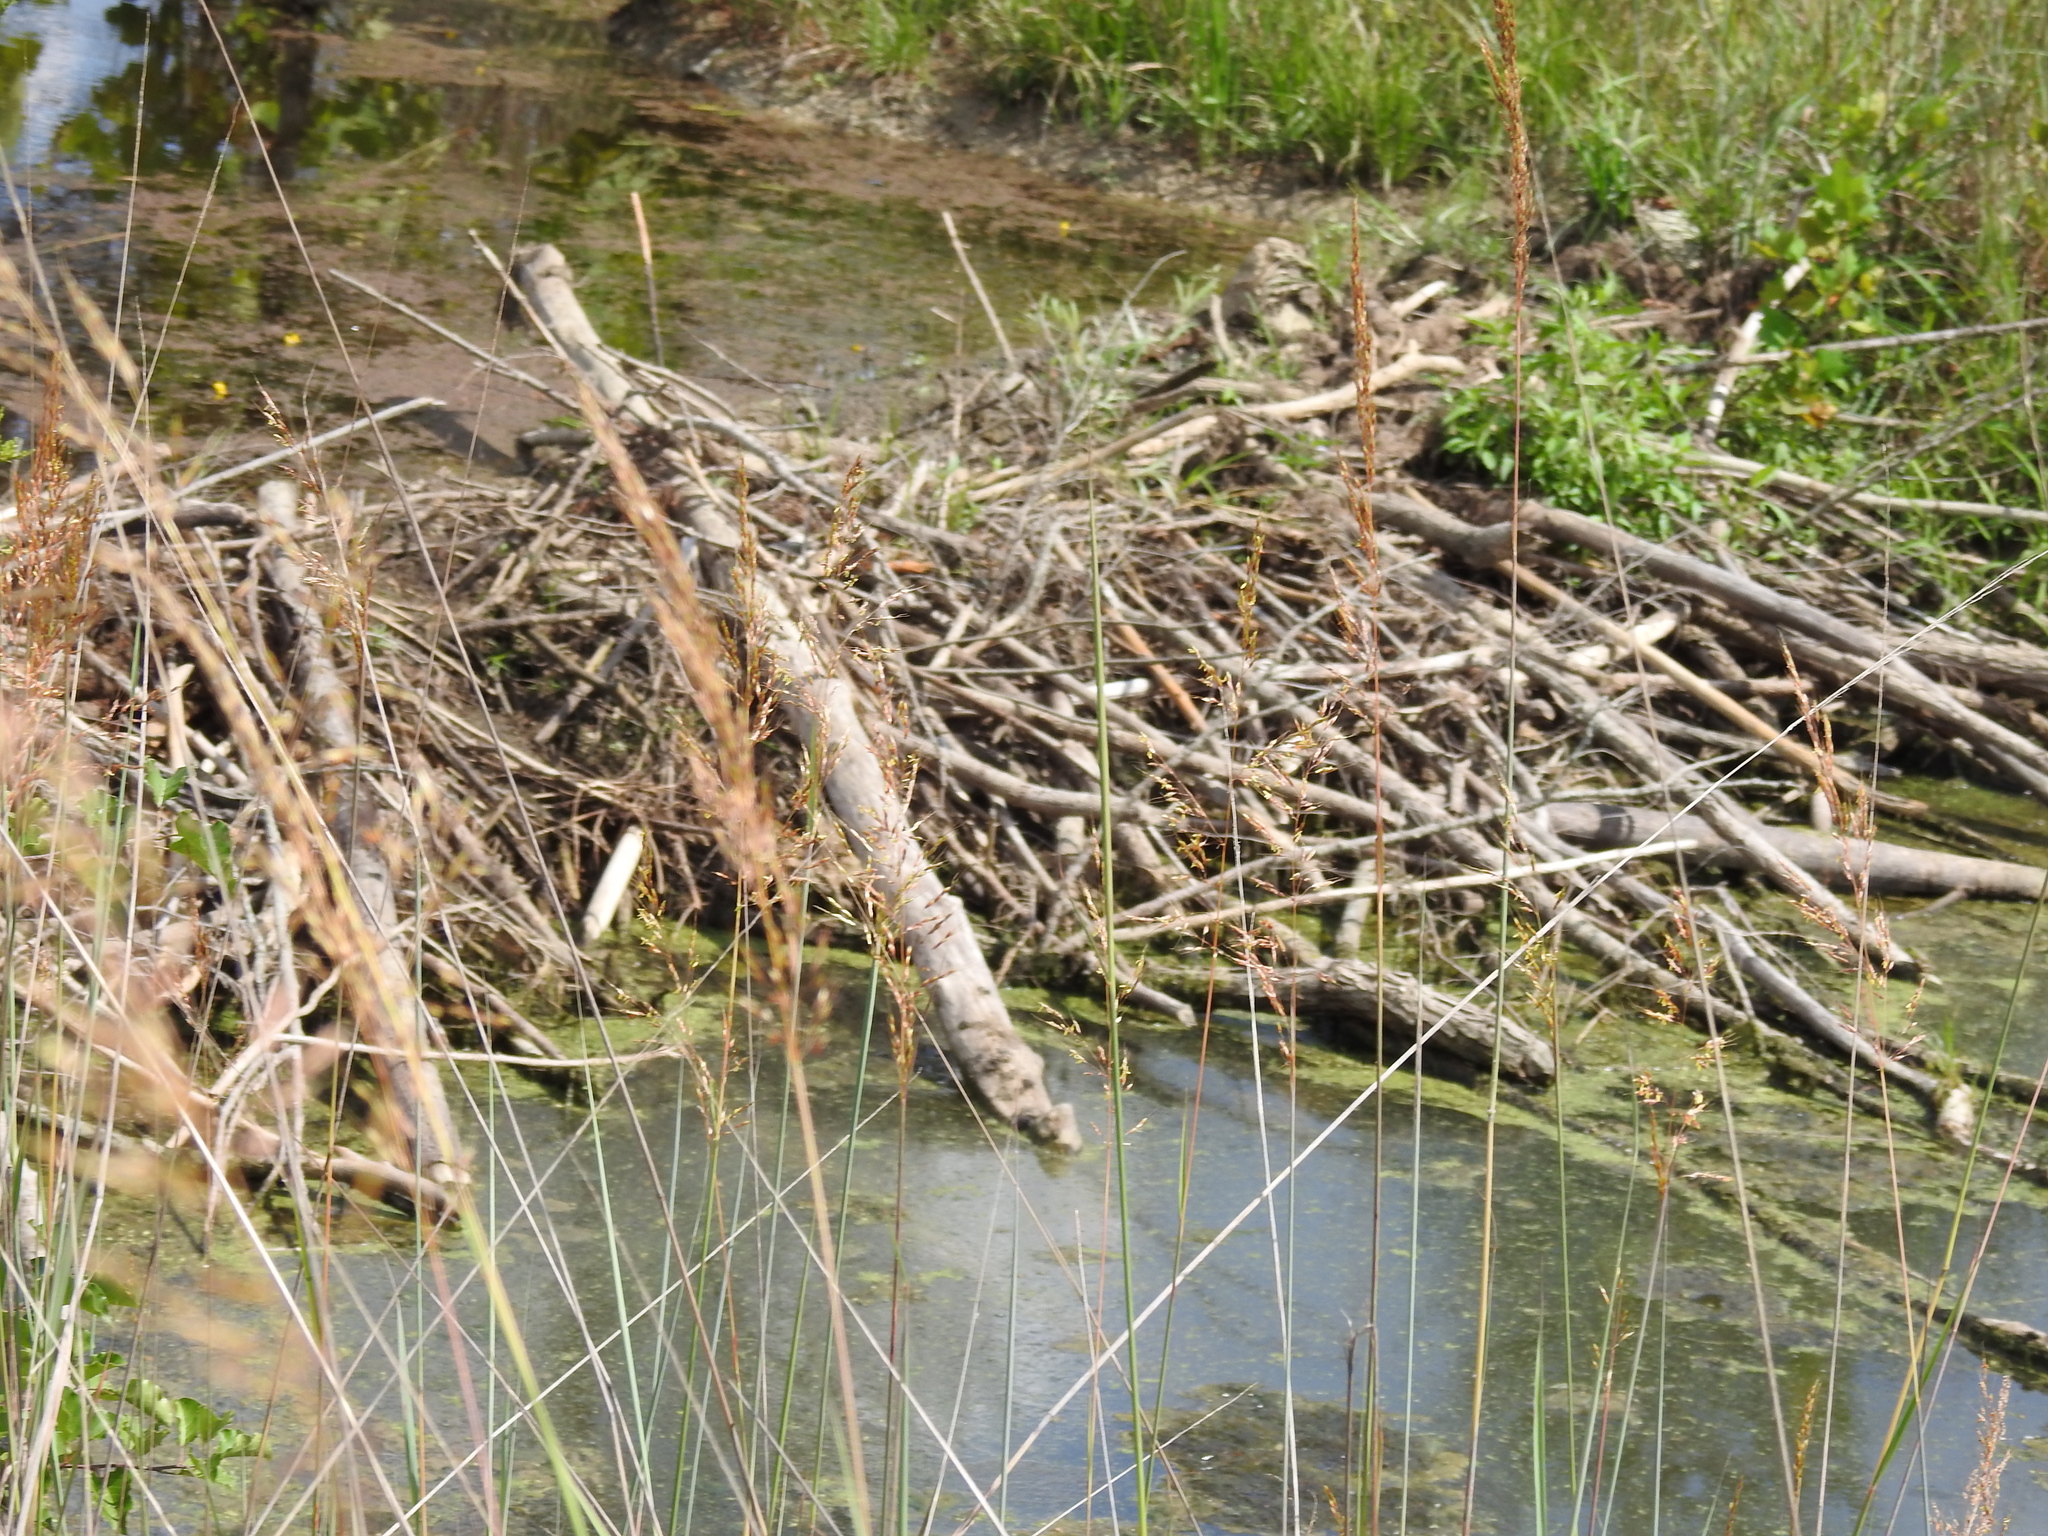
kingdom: Animalia
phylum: Chordata
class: Mammalia
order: Rodentia
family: Castoridae
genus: Castor
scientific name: Castor canadensis
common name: American beaver
